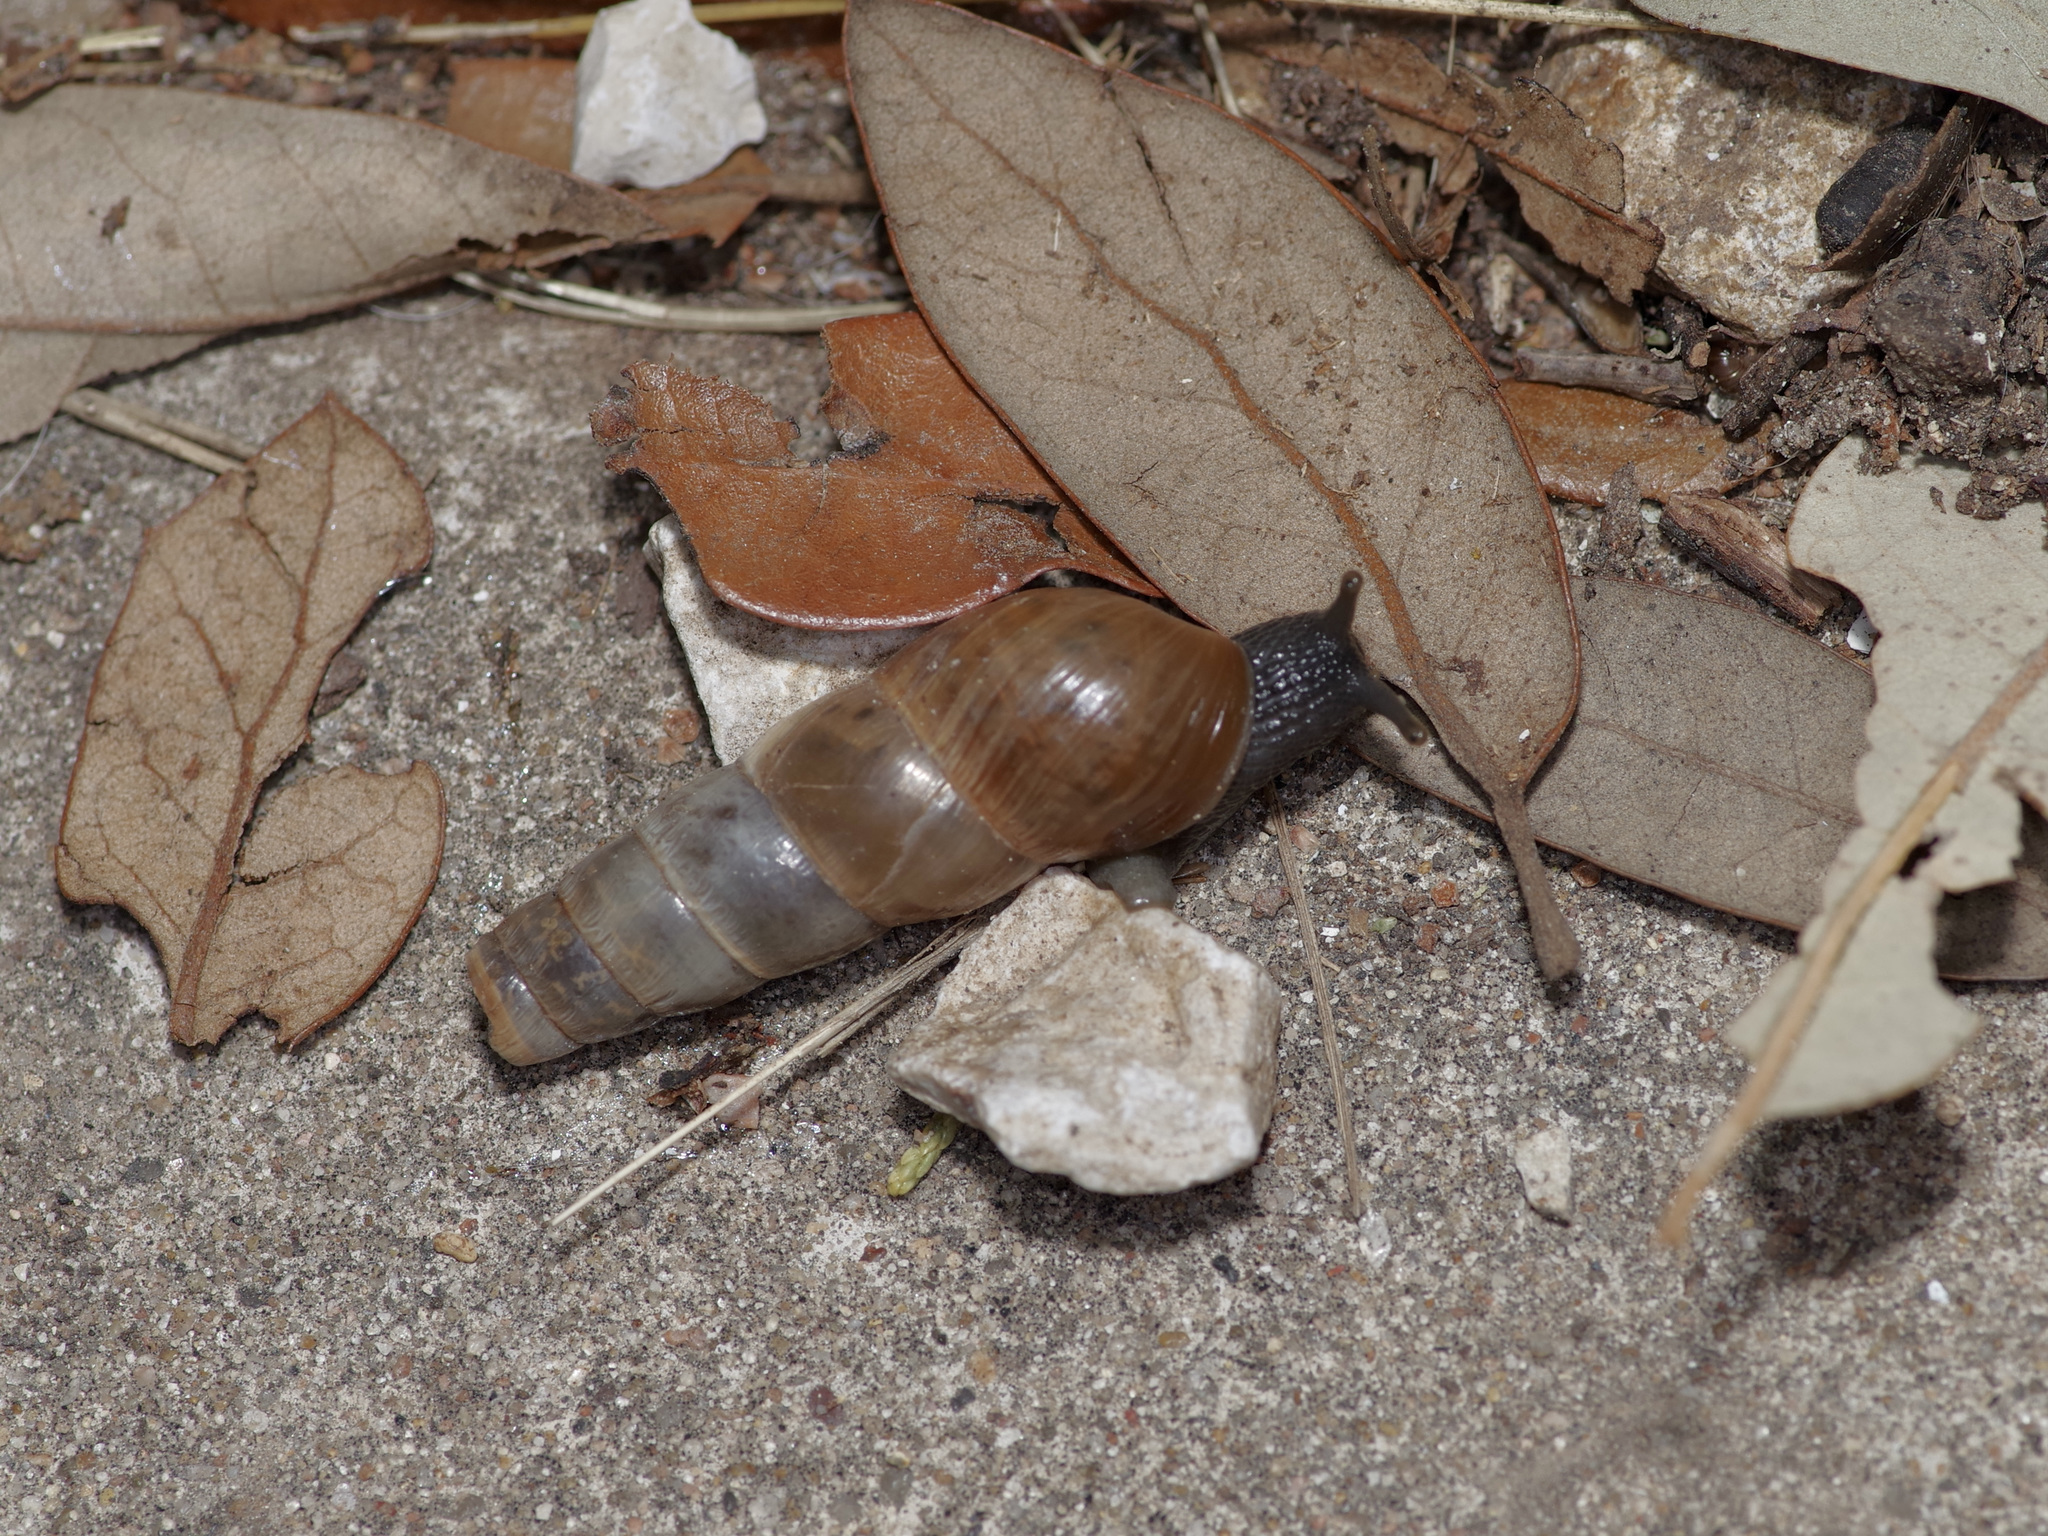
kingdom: Animalia
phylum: Mollusca
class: Gastropoda
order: Stylommatophora
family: Achatinidae
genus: Rumina
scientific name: Rumina decollata
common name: Decollate snail
